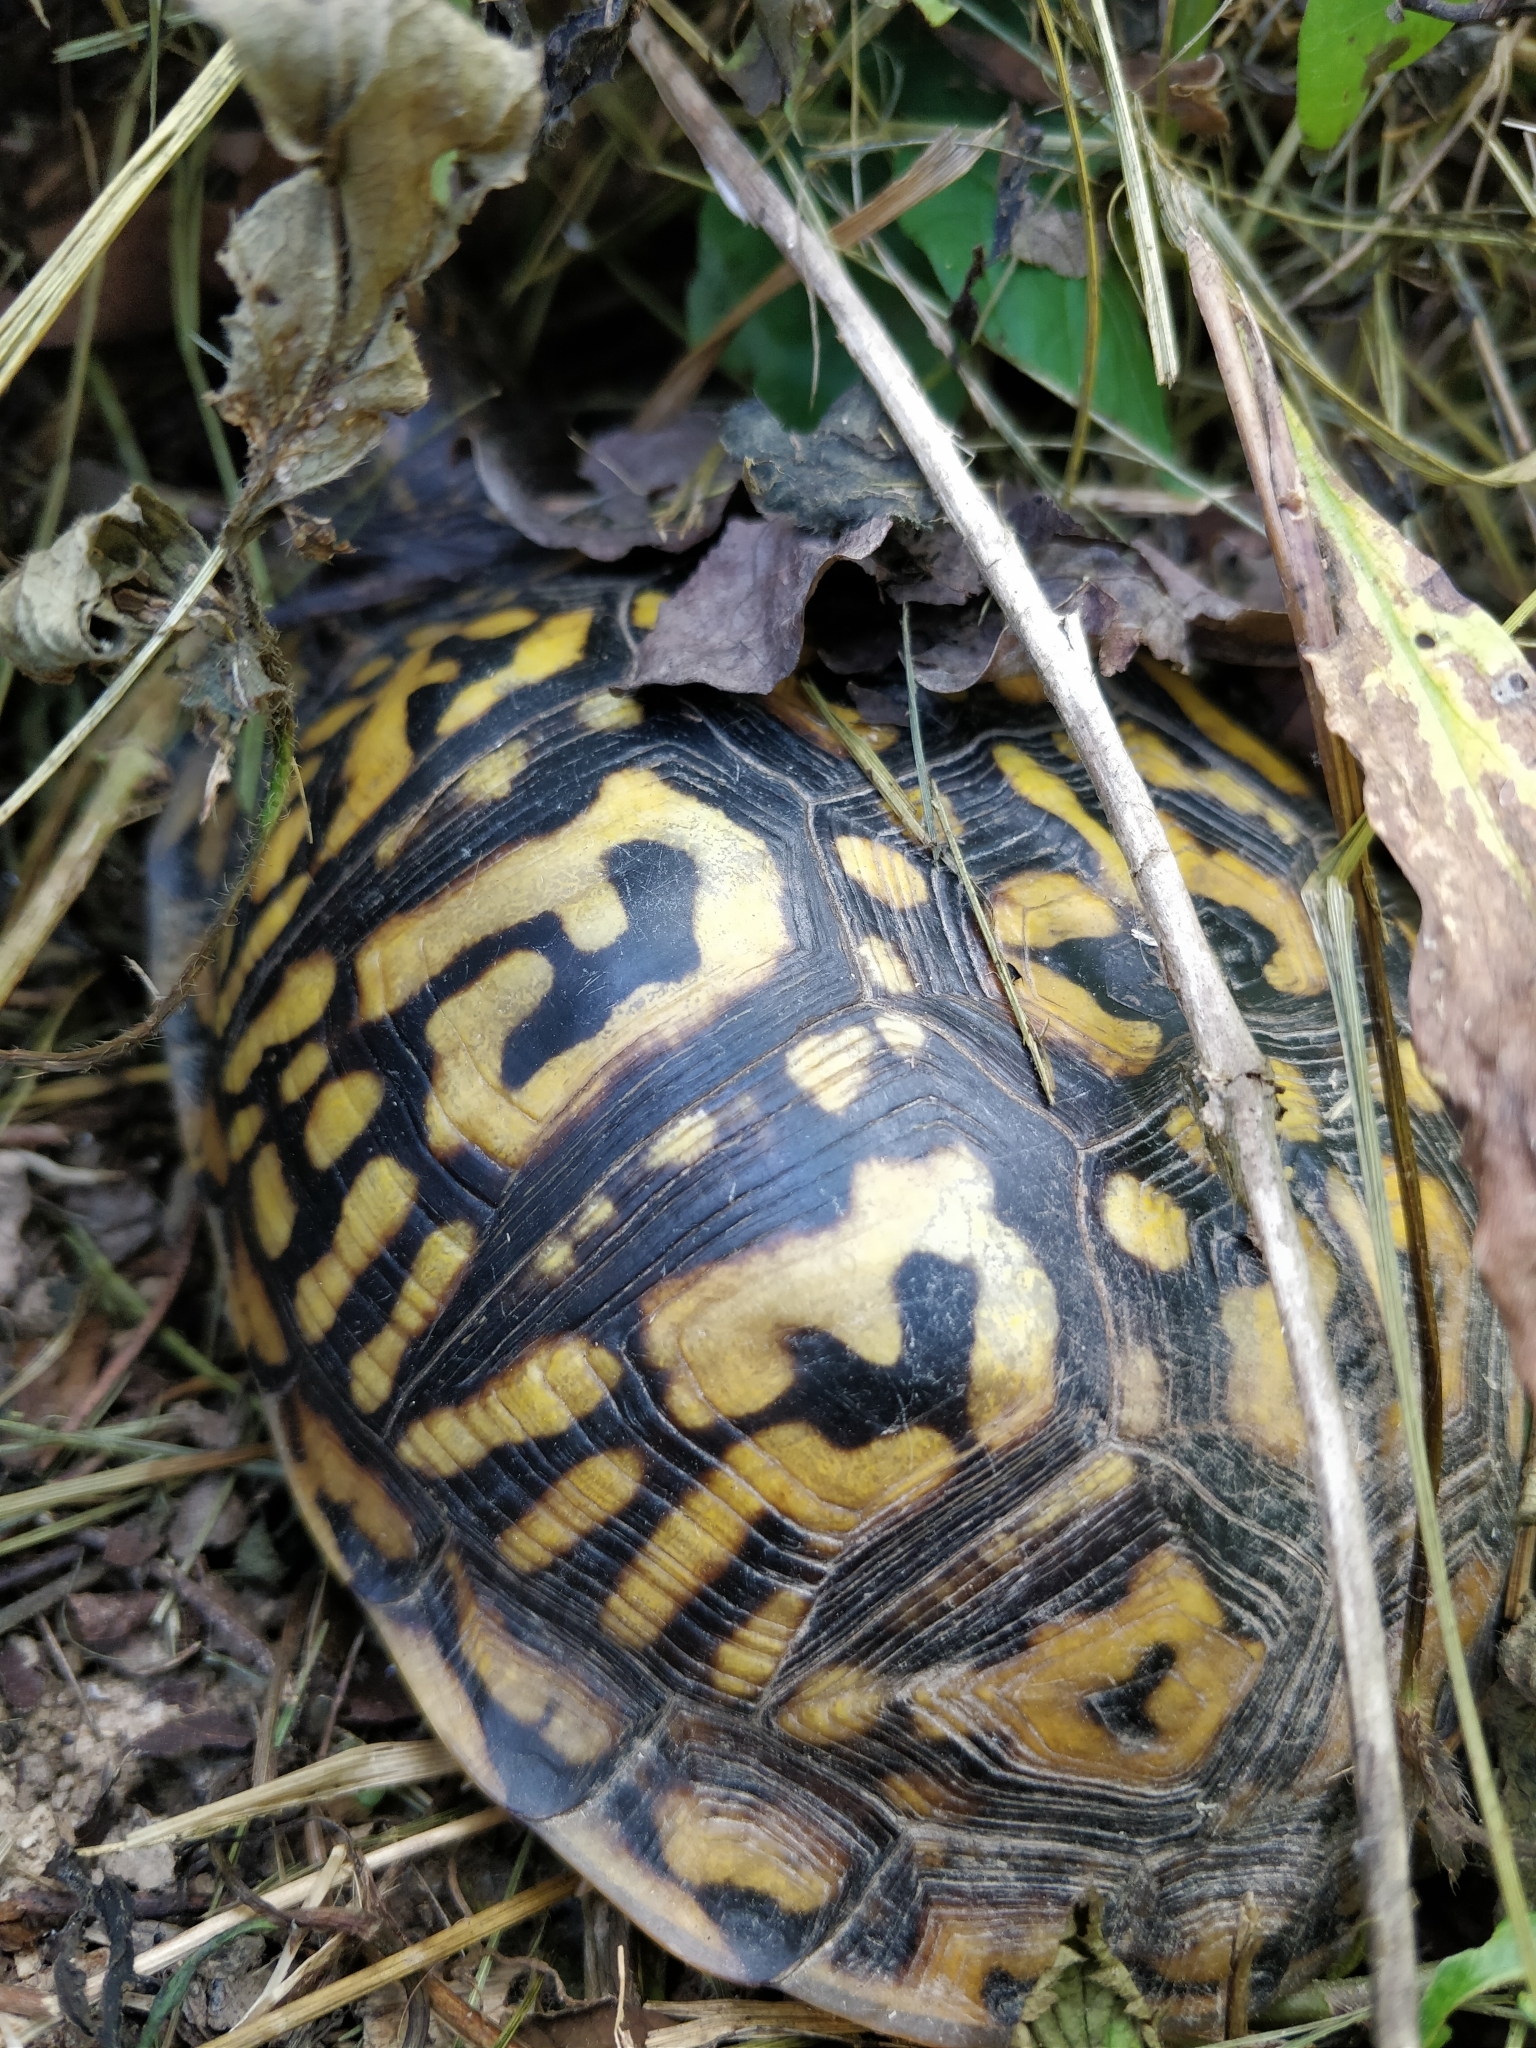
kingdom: Animalia
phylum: Chordata
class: Testudines
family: Emydidae
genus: Terrapene
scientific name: Terrapene carolina
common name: Common box turtle
